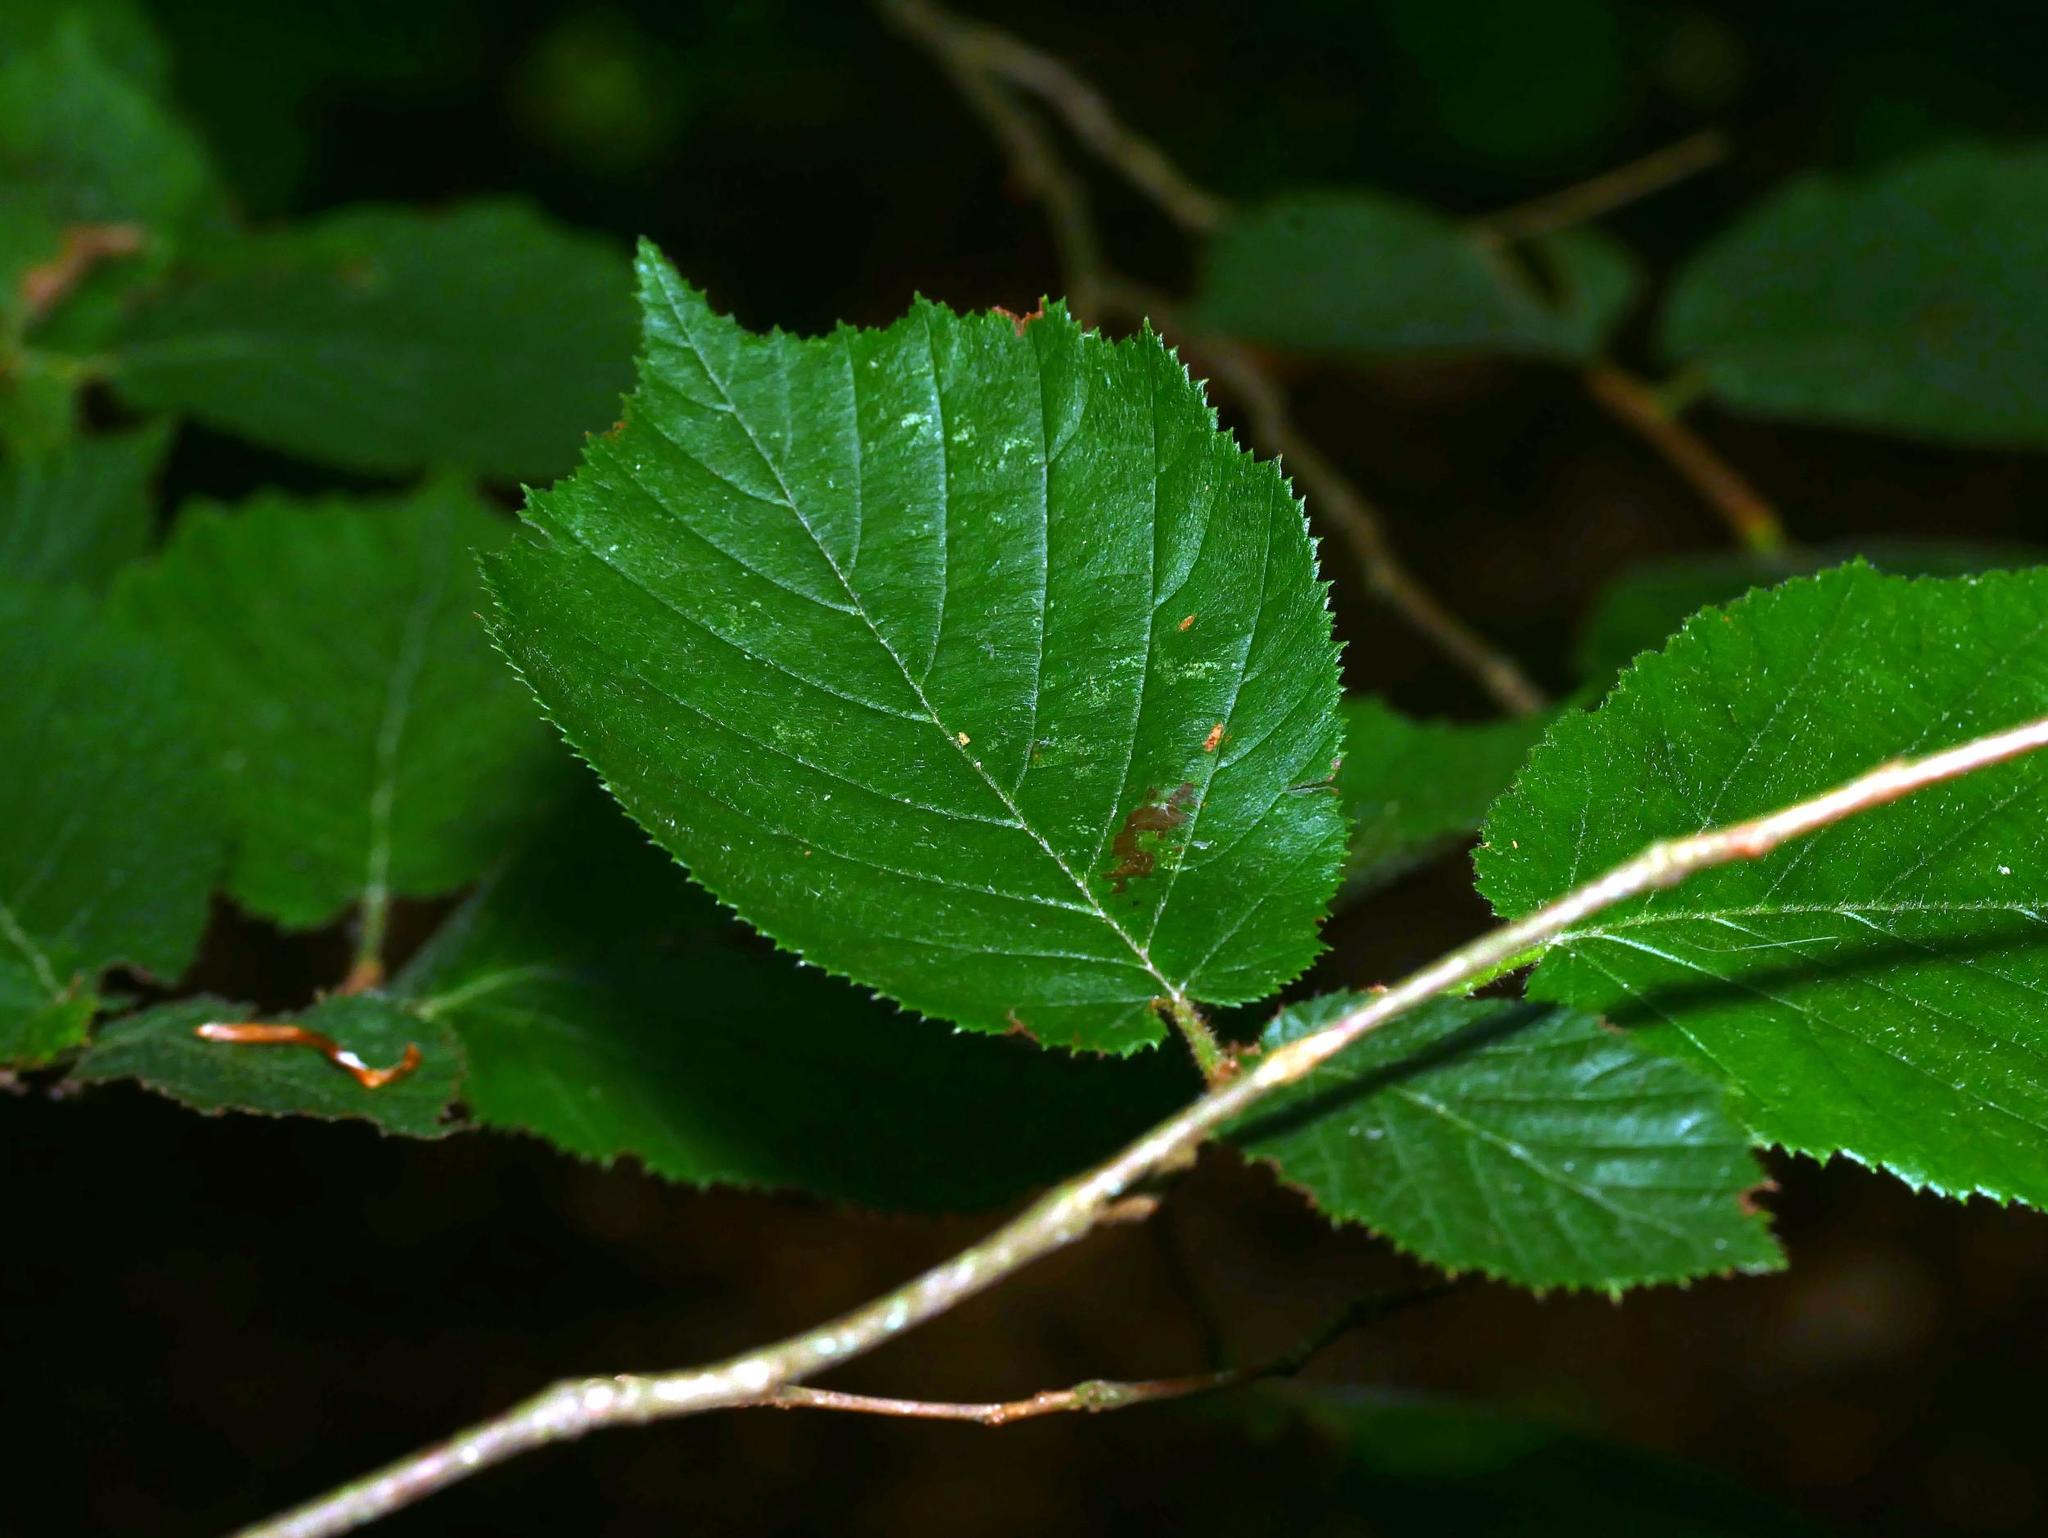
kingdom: Plantae
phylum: Tracheophyta
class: Magnoliopsida
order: Fagales
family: Betulaceae
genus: Corylus
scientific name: Corylus avellana
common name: European hazel
